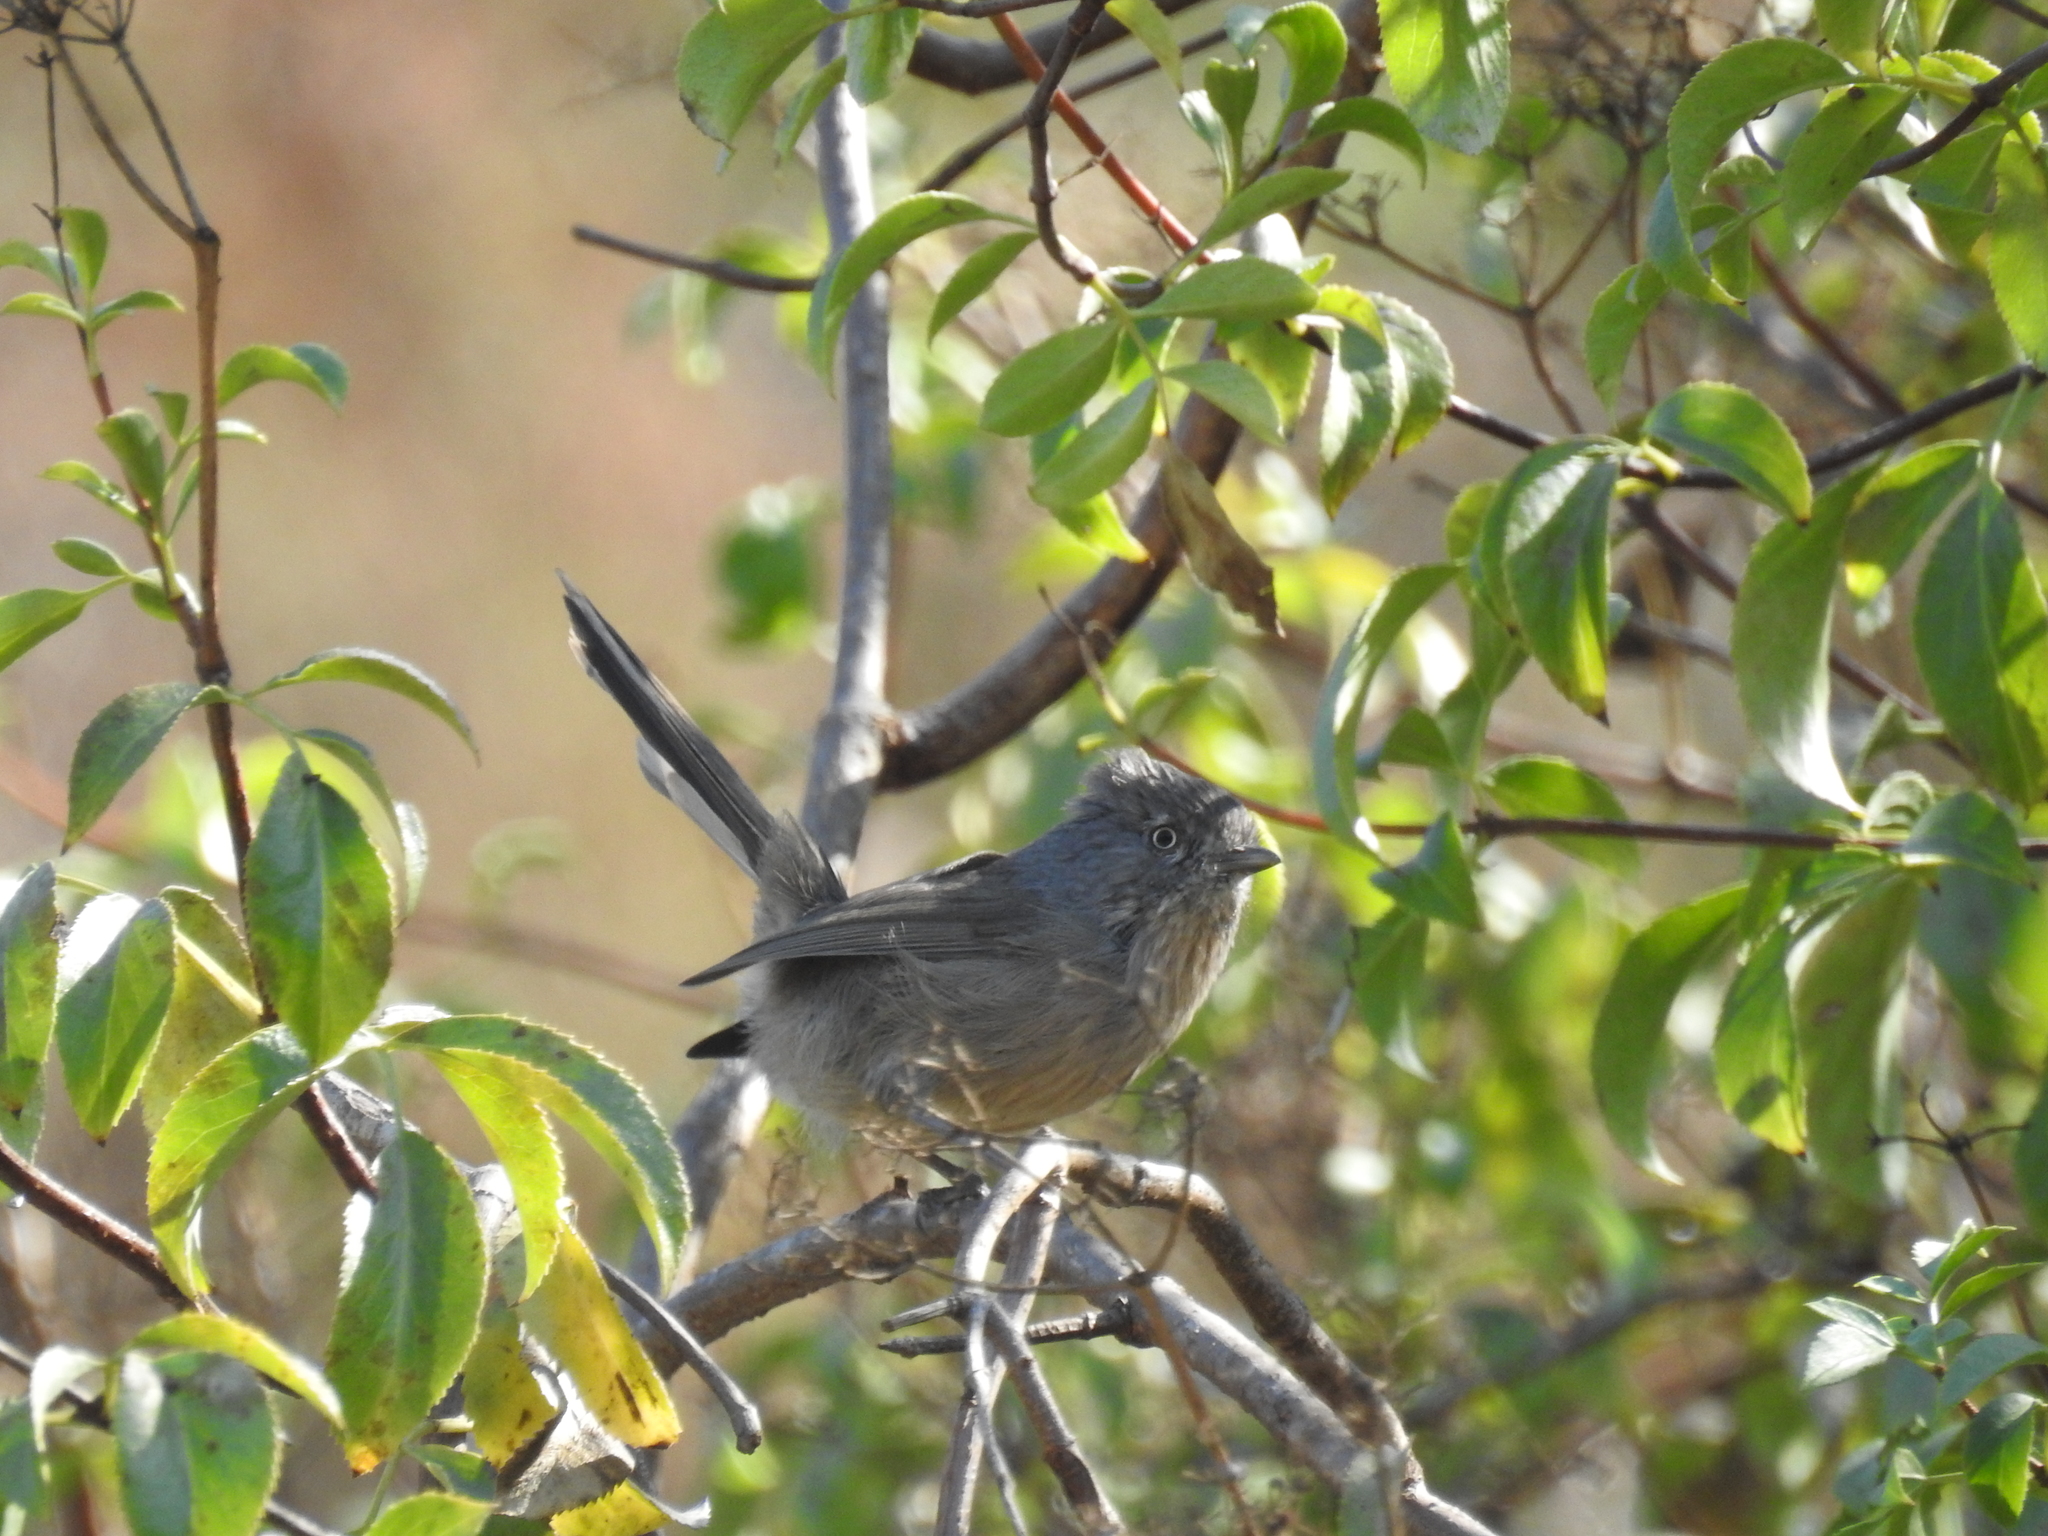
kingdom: Animalia
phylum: Chordata
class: Aves
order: Passeriformes
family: Sylviidae
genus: Chamaea
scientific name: Chamaea fasciata
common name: Wrentit
